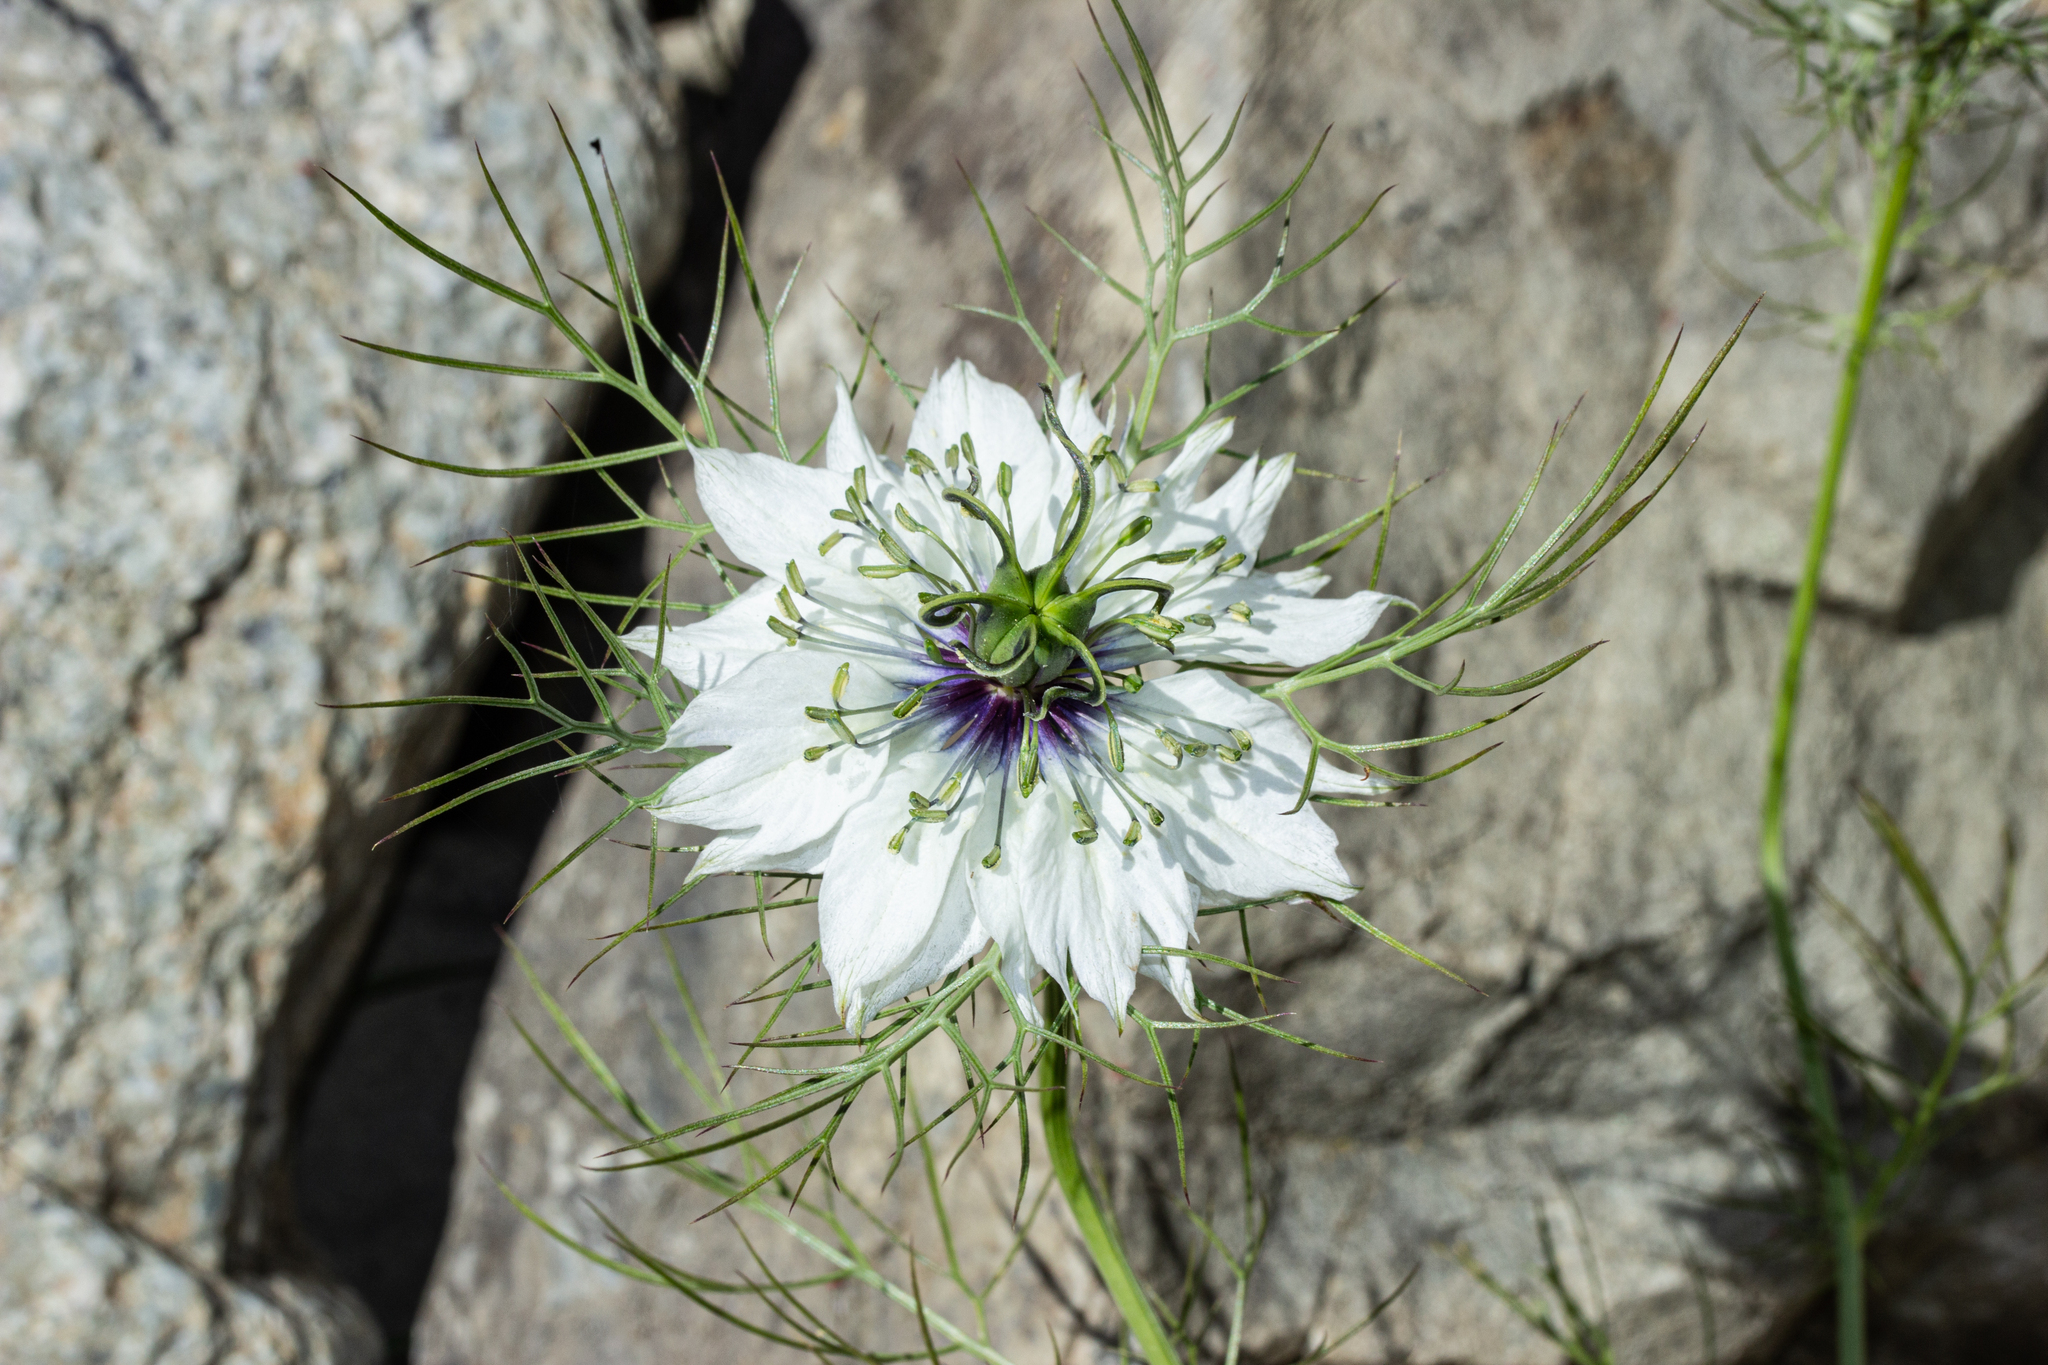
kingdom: Plantae
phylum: Tracheophyta
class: Magnoliopsida
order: Ranunculales
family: Ranunculaceae
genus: Nigella
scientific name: Nigella damascena
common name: Love-in-a-mist
